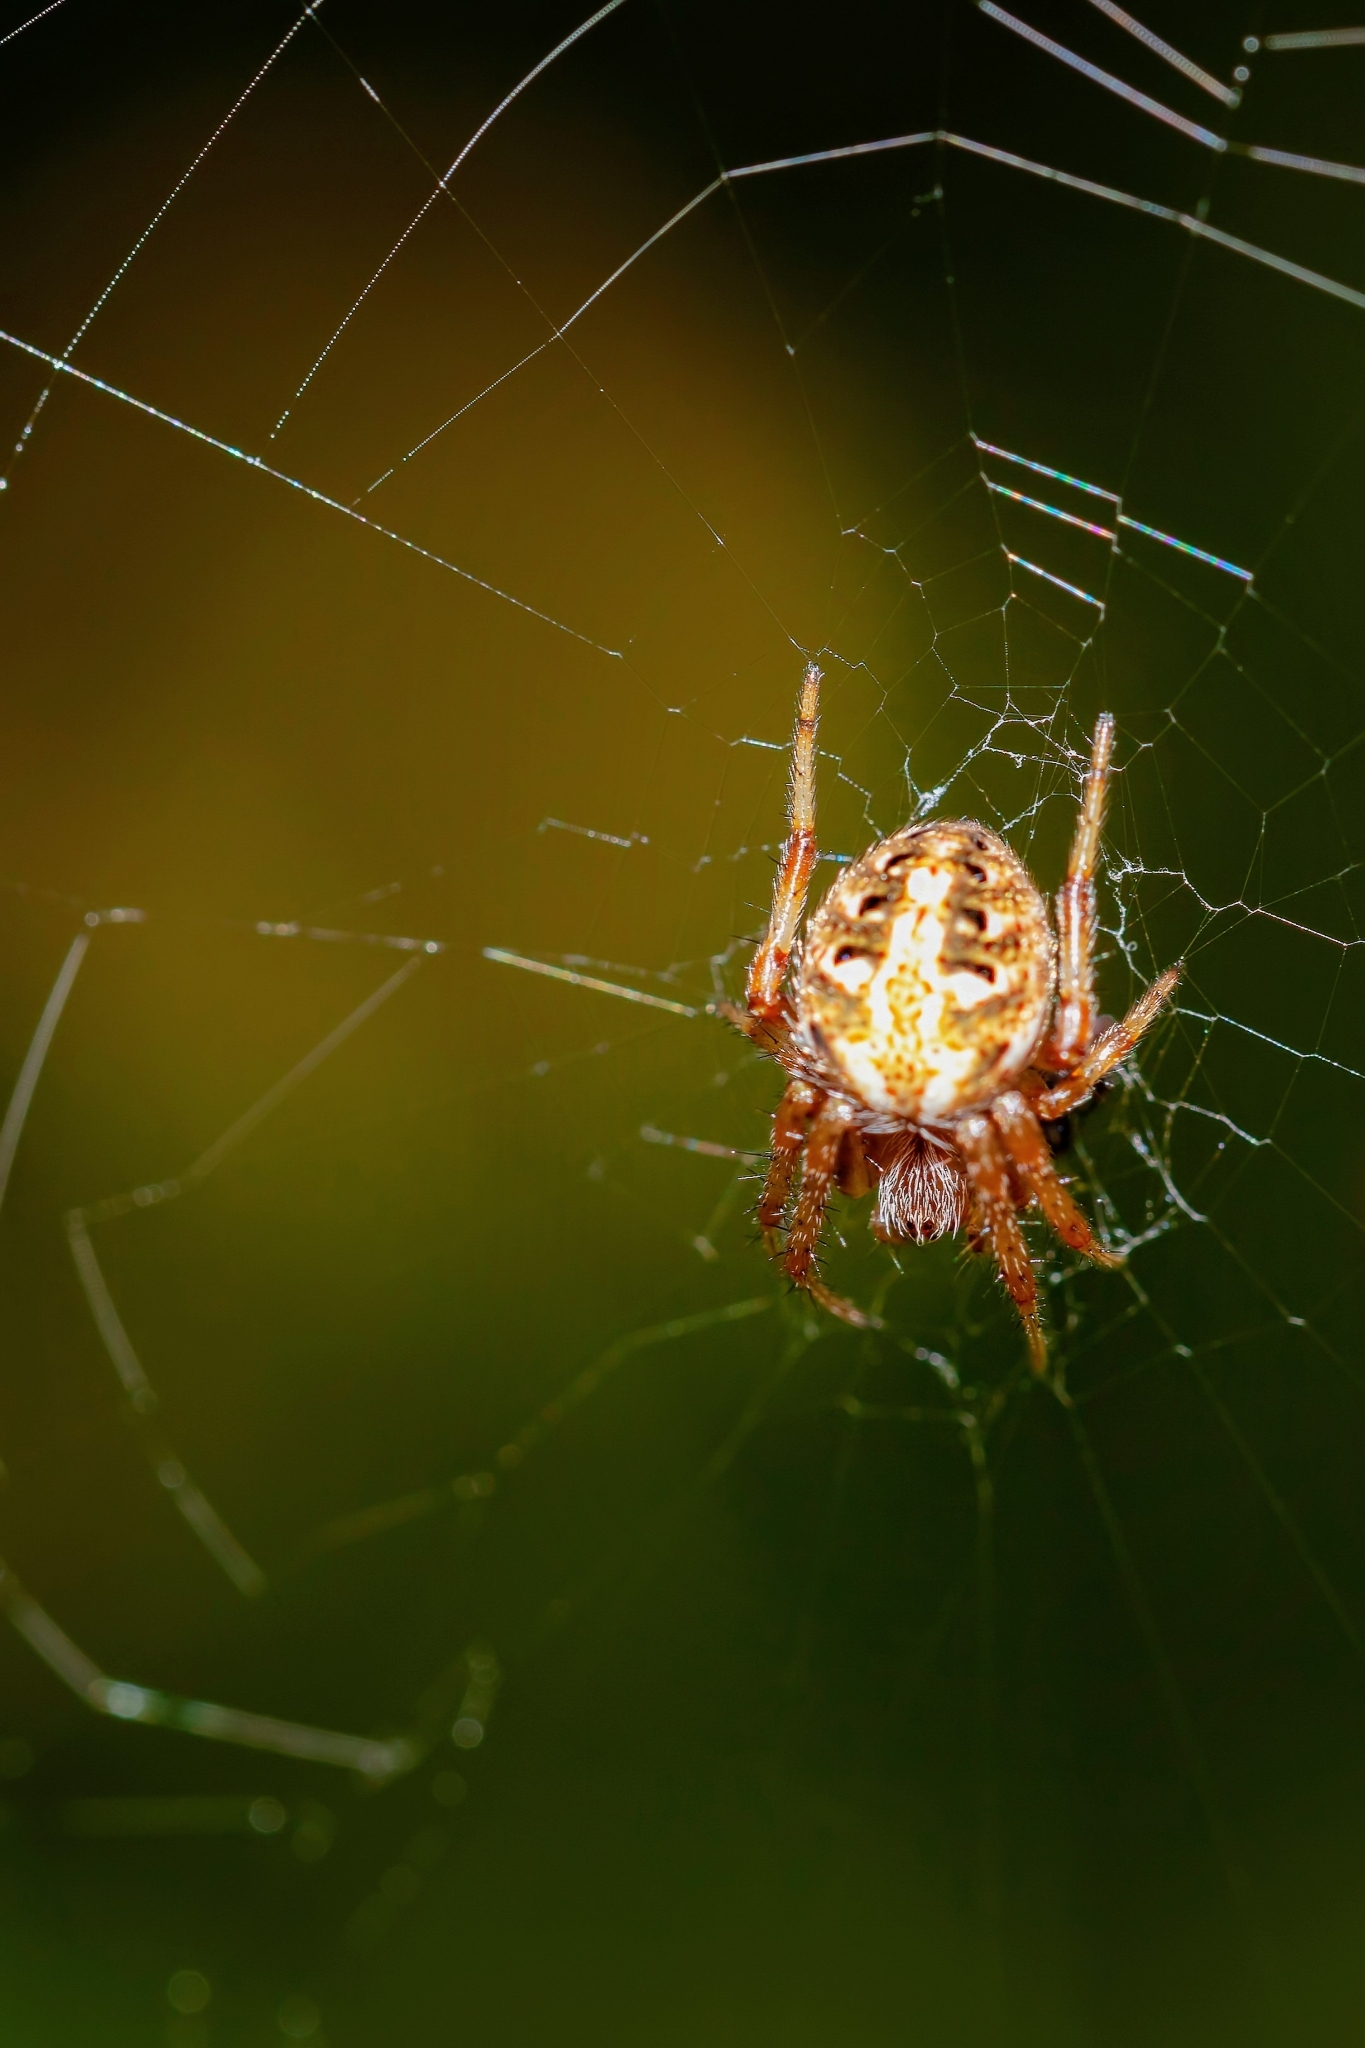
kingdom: Animalia
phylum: Arthropoda
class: Arachnida
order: Araneae
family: Araneidae
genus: Neoscona
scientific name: Neoscona arabesca
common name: Orb weavers
